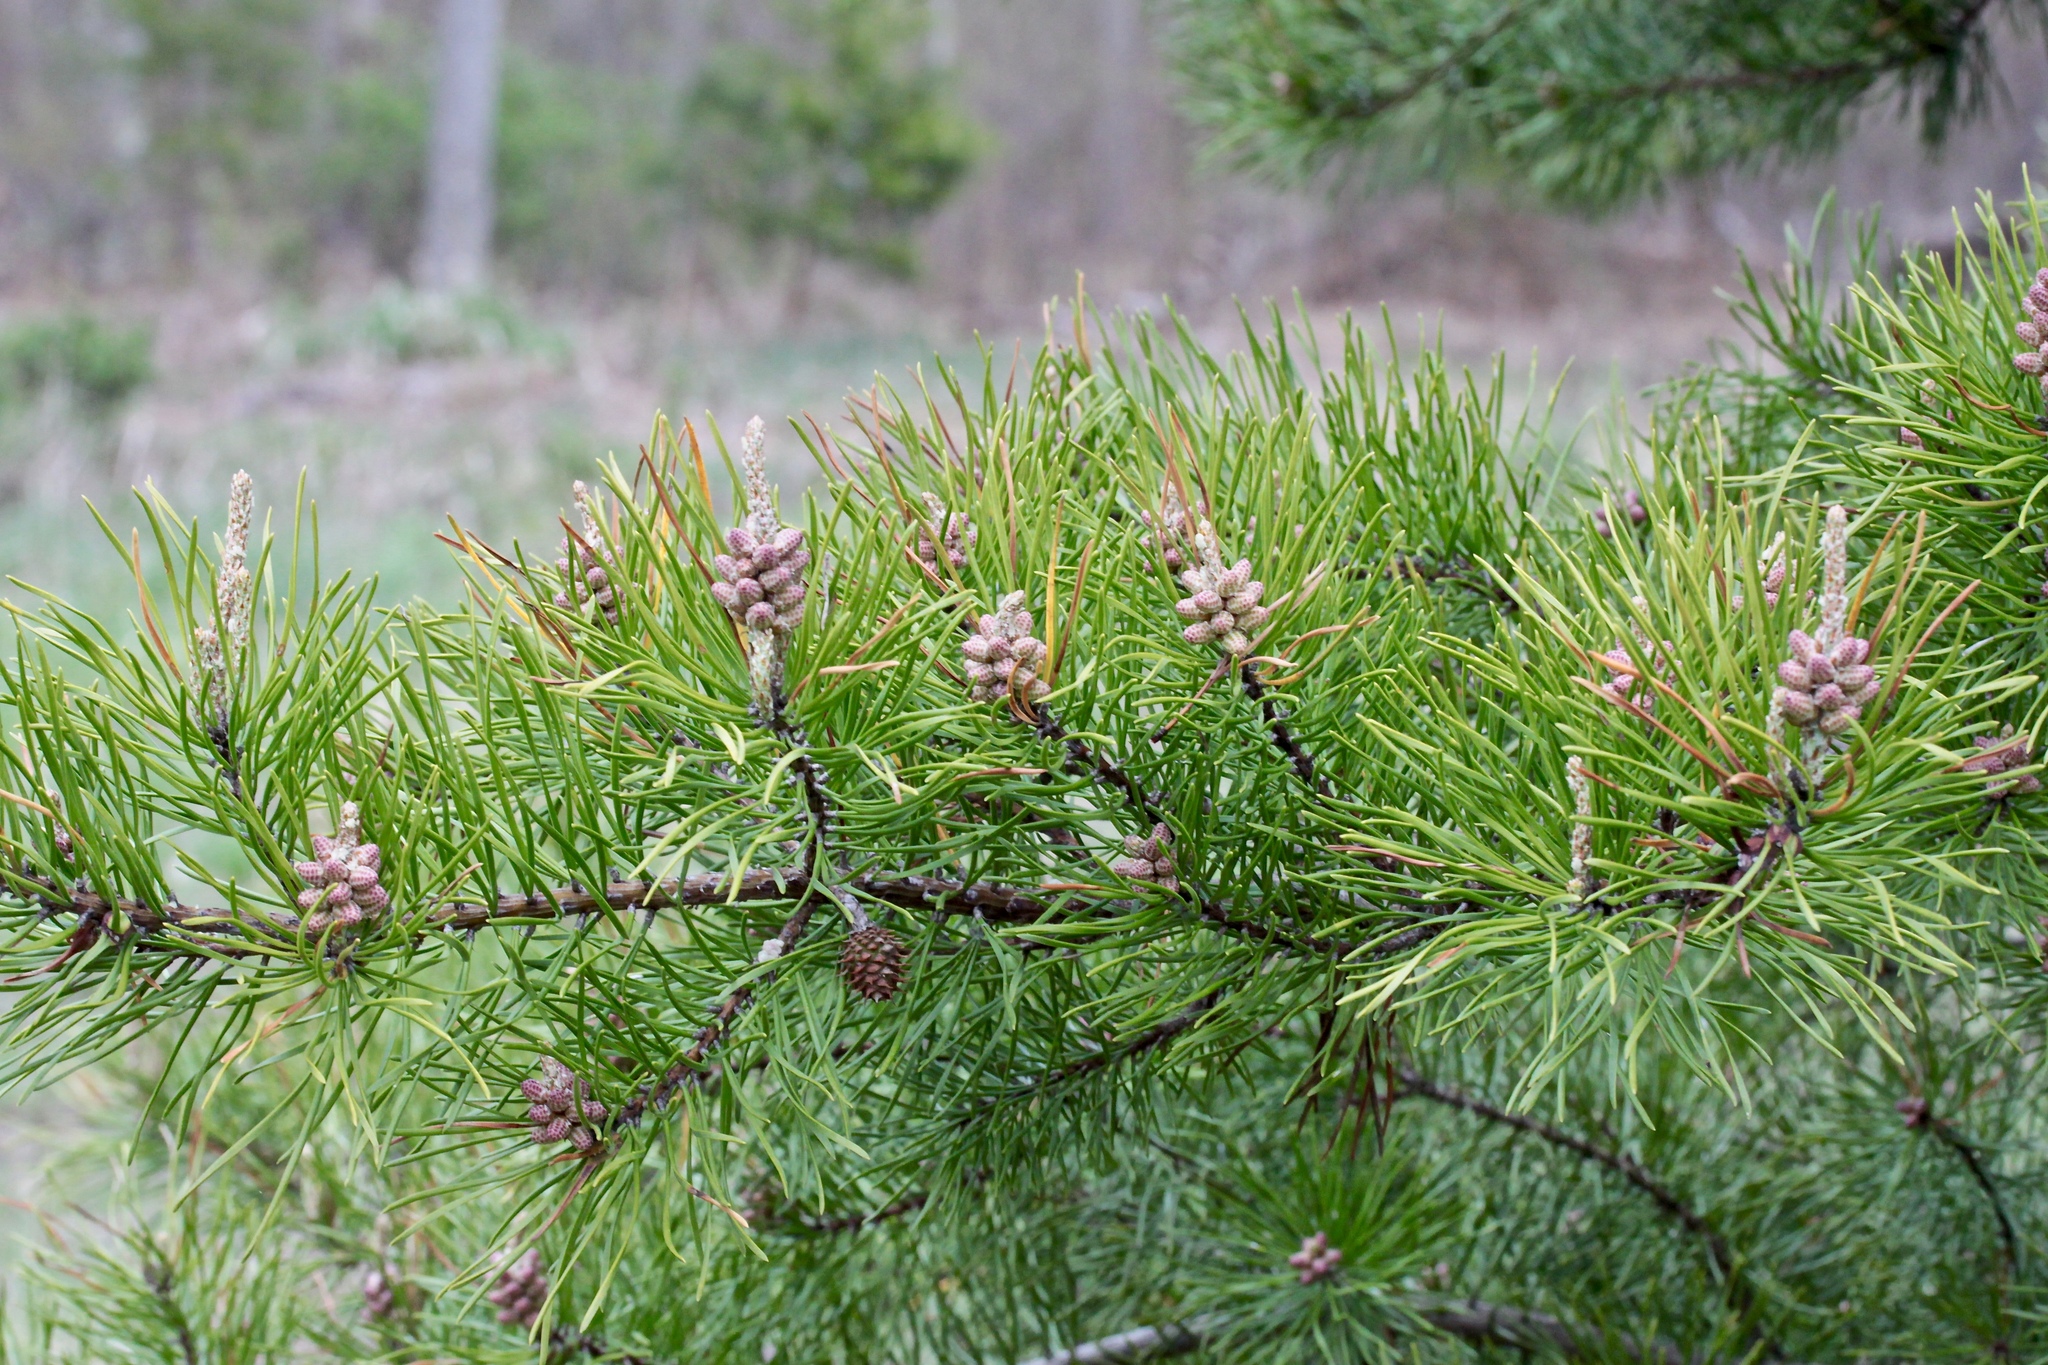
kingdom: Plantae
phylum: Tracheophyta
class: Pinopsida
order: Pinales
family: Pinaceae
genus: Pinus
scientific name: Pinus rigida
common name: Pitch pine
